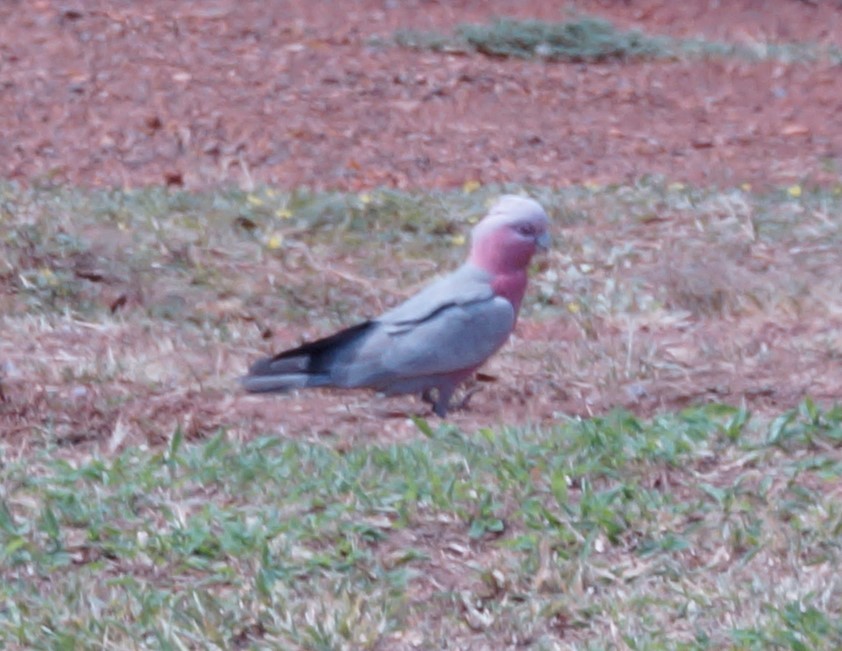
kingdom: Animalia
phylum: Chordata
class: Aves
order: Psittaciformes
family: Psittacidae
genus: Eolophus
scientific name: Eolophus roseicapilla
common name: Galah
